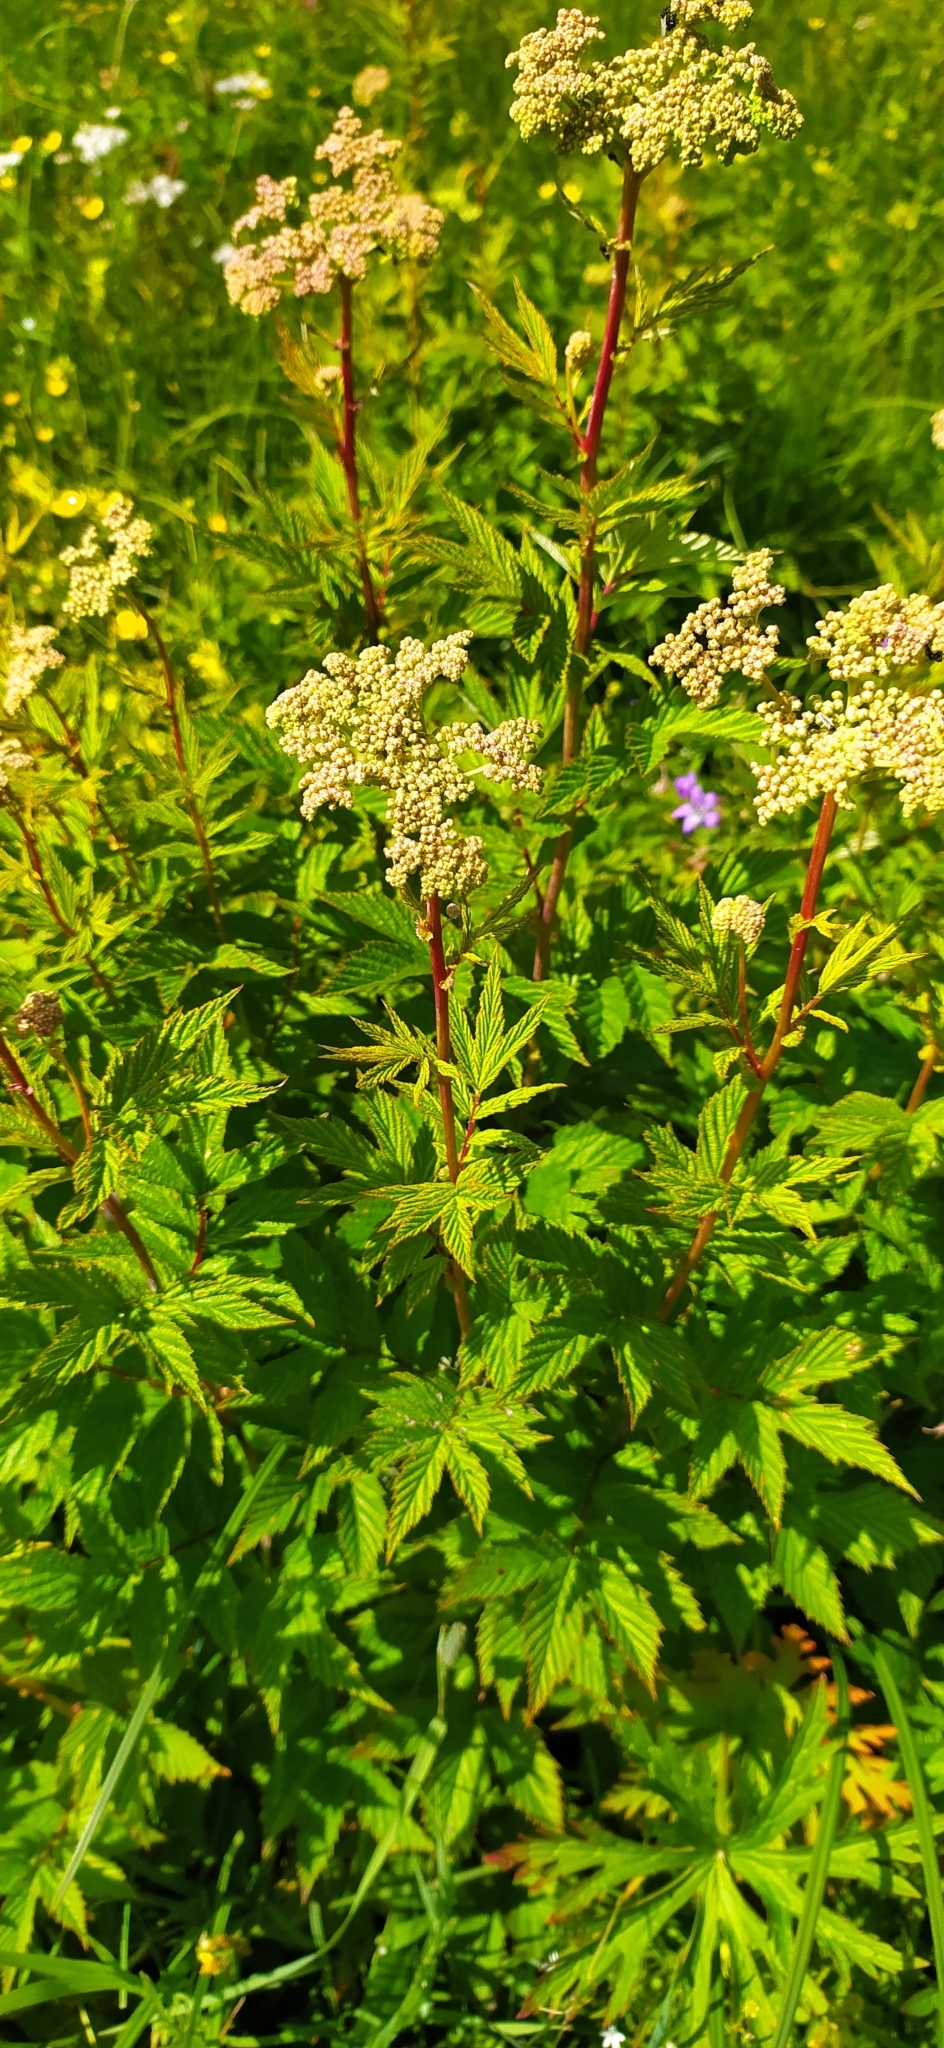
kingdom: Plantae
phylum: Tracheophyta
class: Magnoliopsida
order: Rosales
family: Rosaceae
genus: Filipendula
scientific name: Filipendula ulmaria
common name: Meadowsweet
